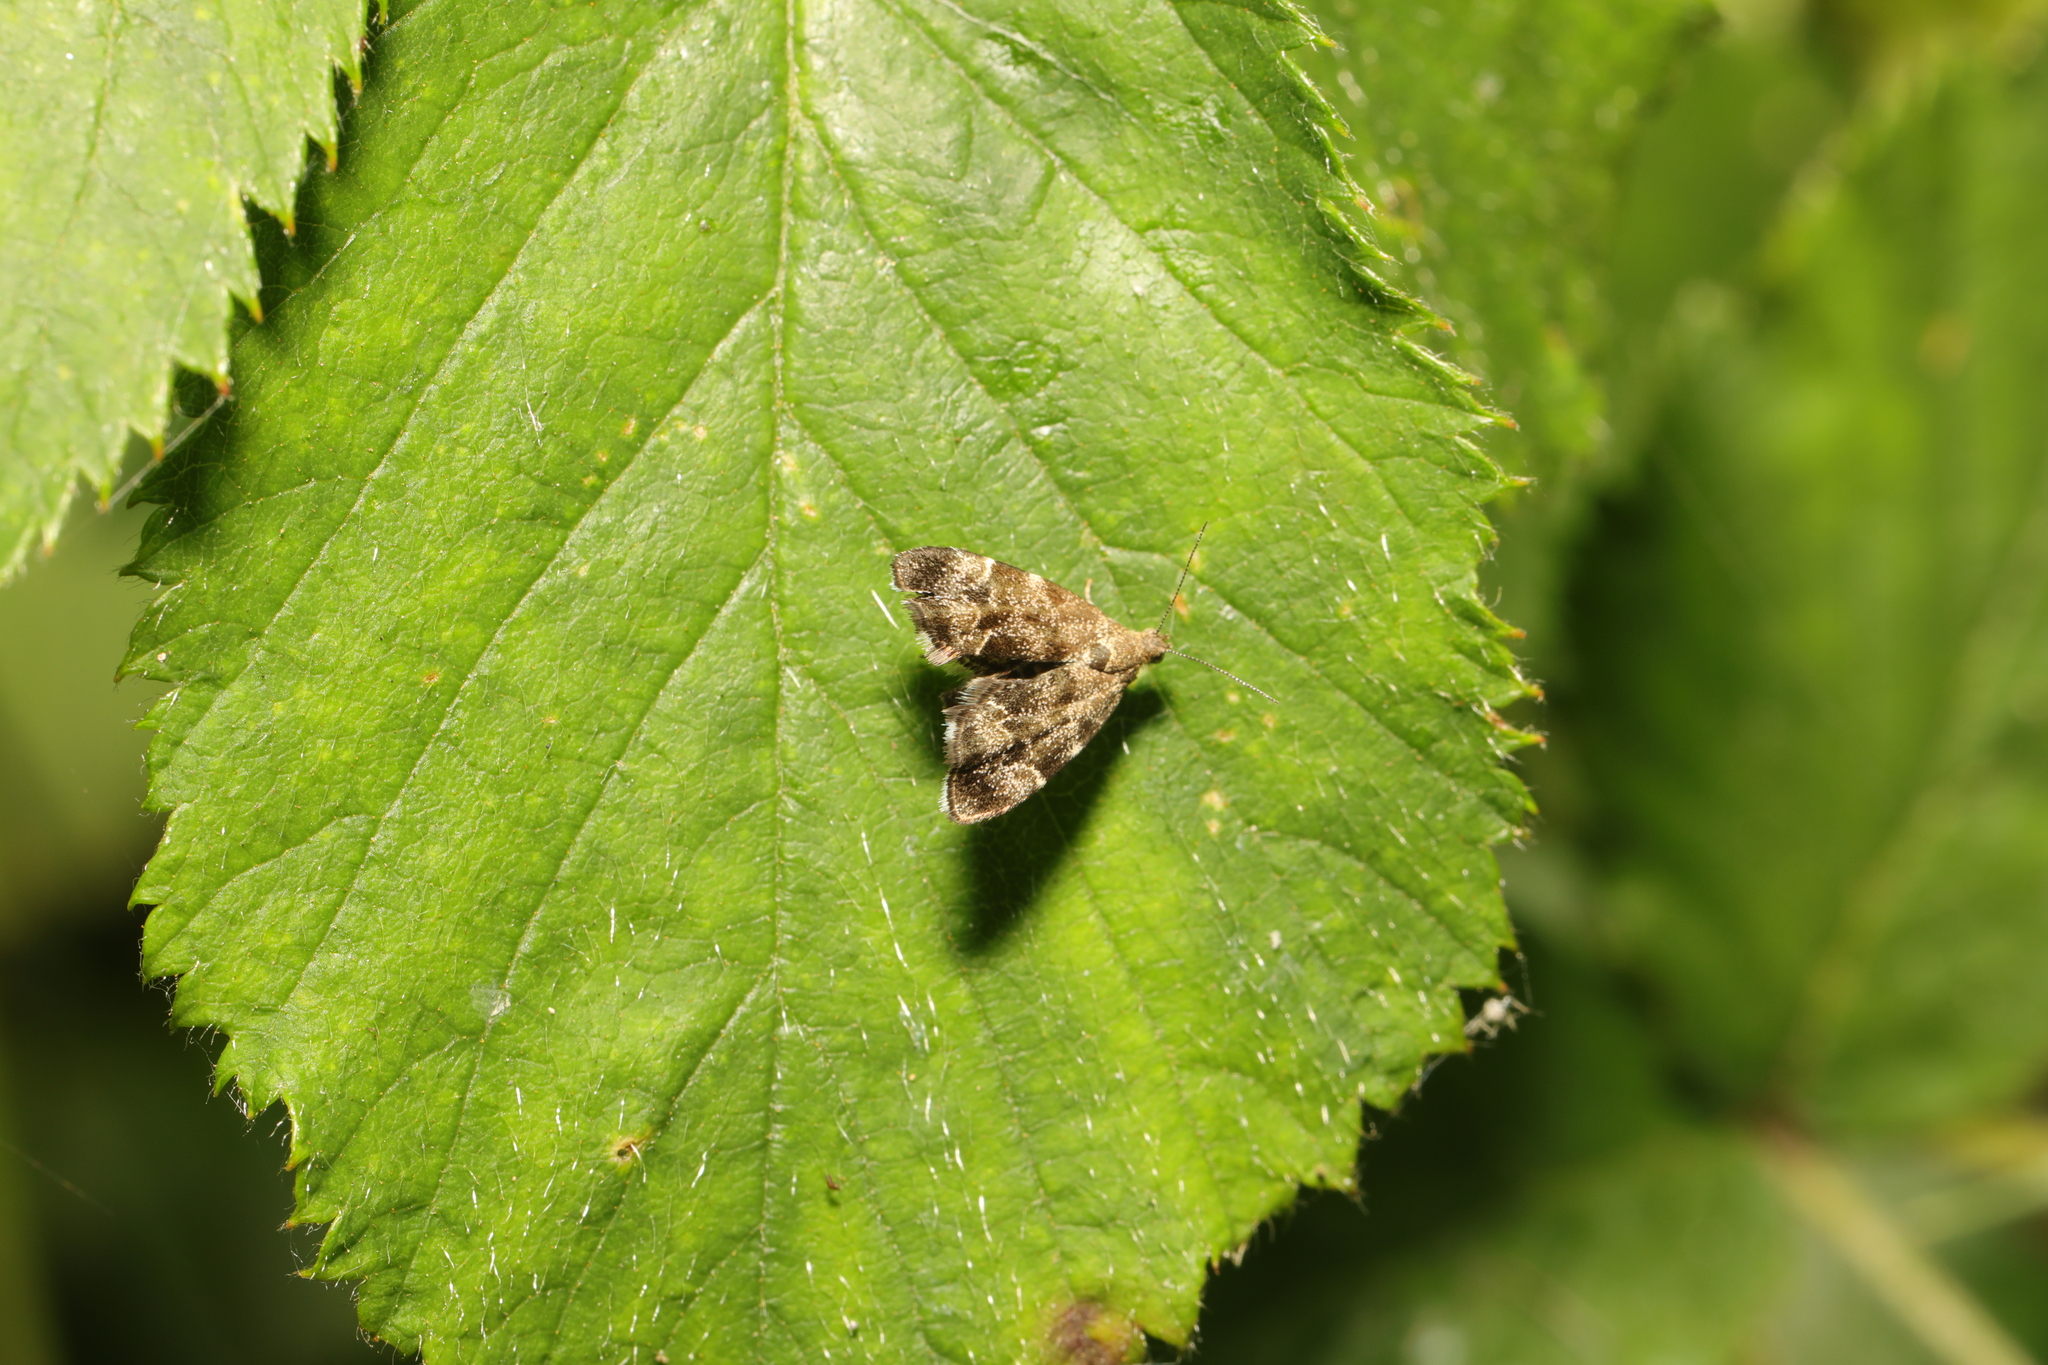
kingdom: Animalia
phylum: Arthropoda
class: Insecta
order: Lepidoptera
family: Choreutidae
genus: Anthophila
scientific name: Anthophila fabriciana
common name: Nettle-tap
